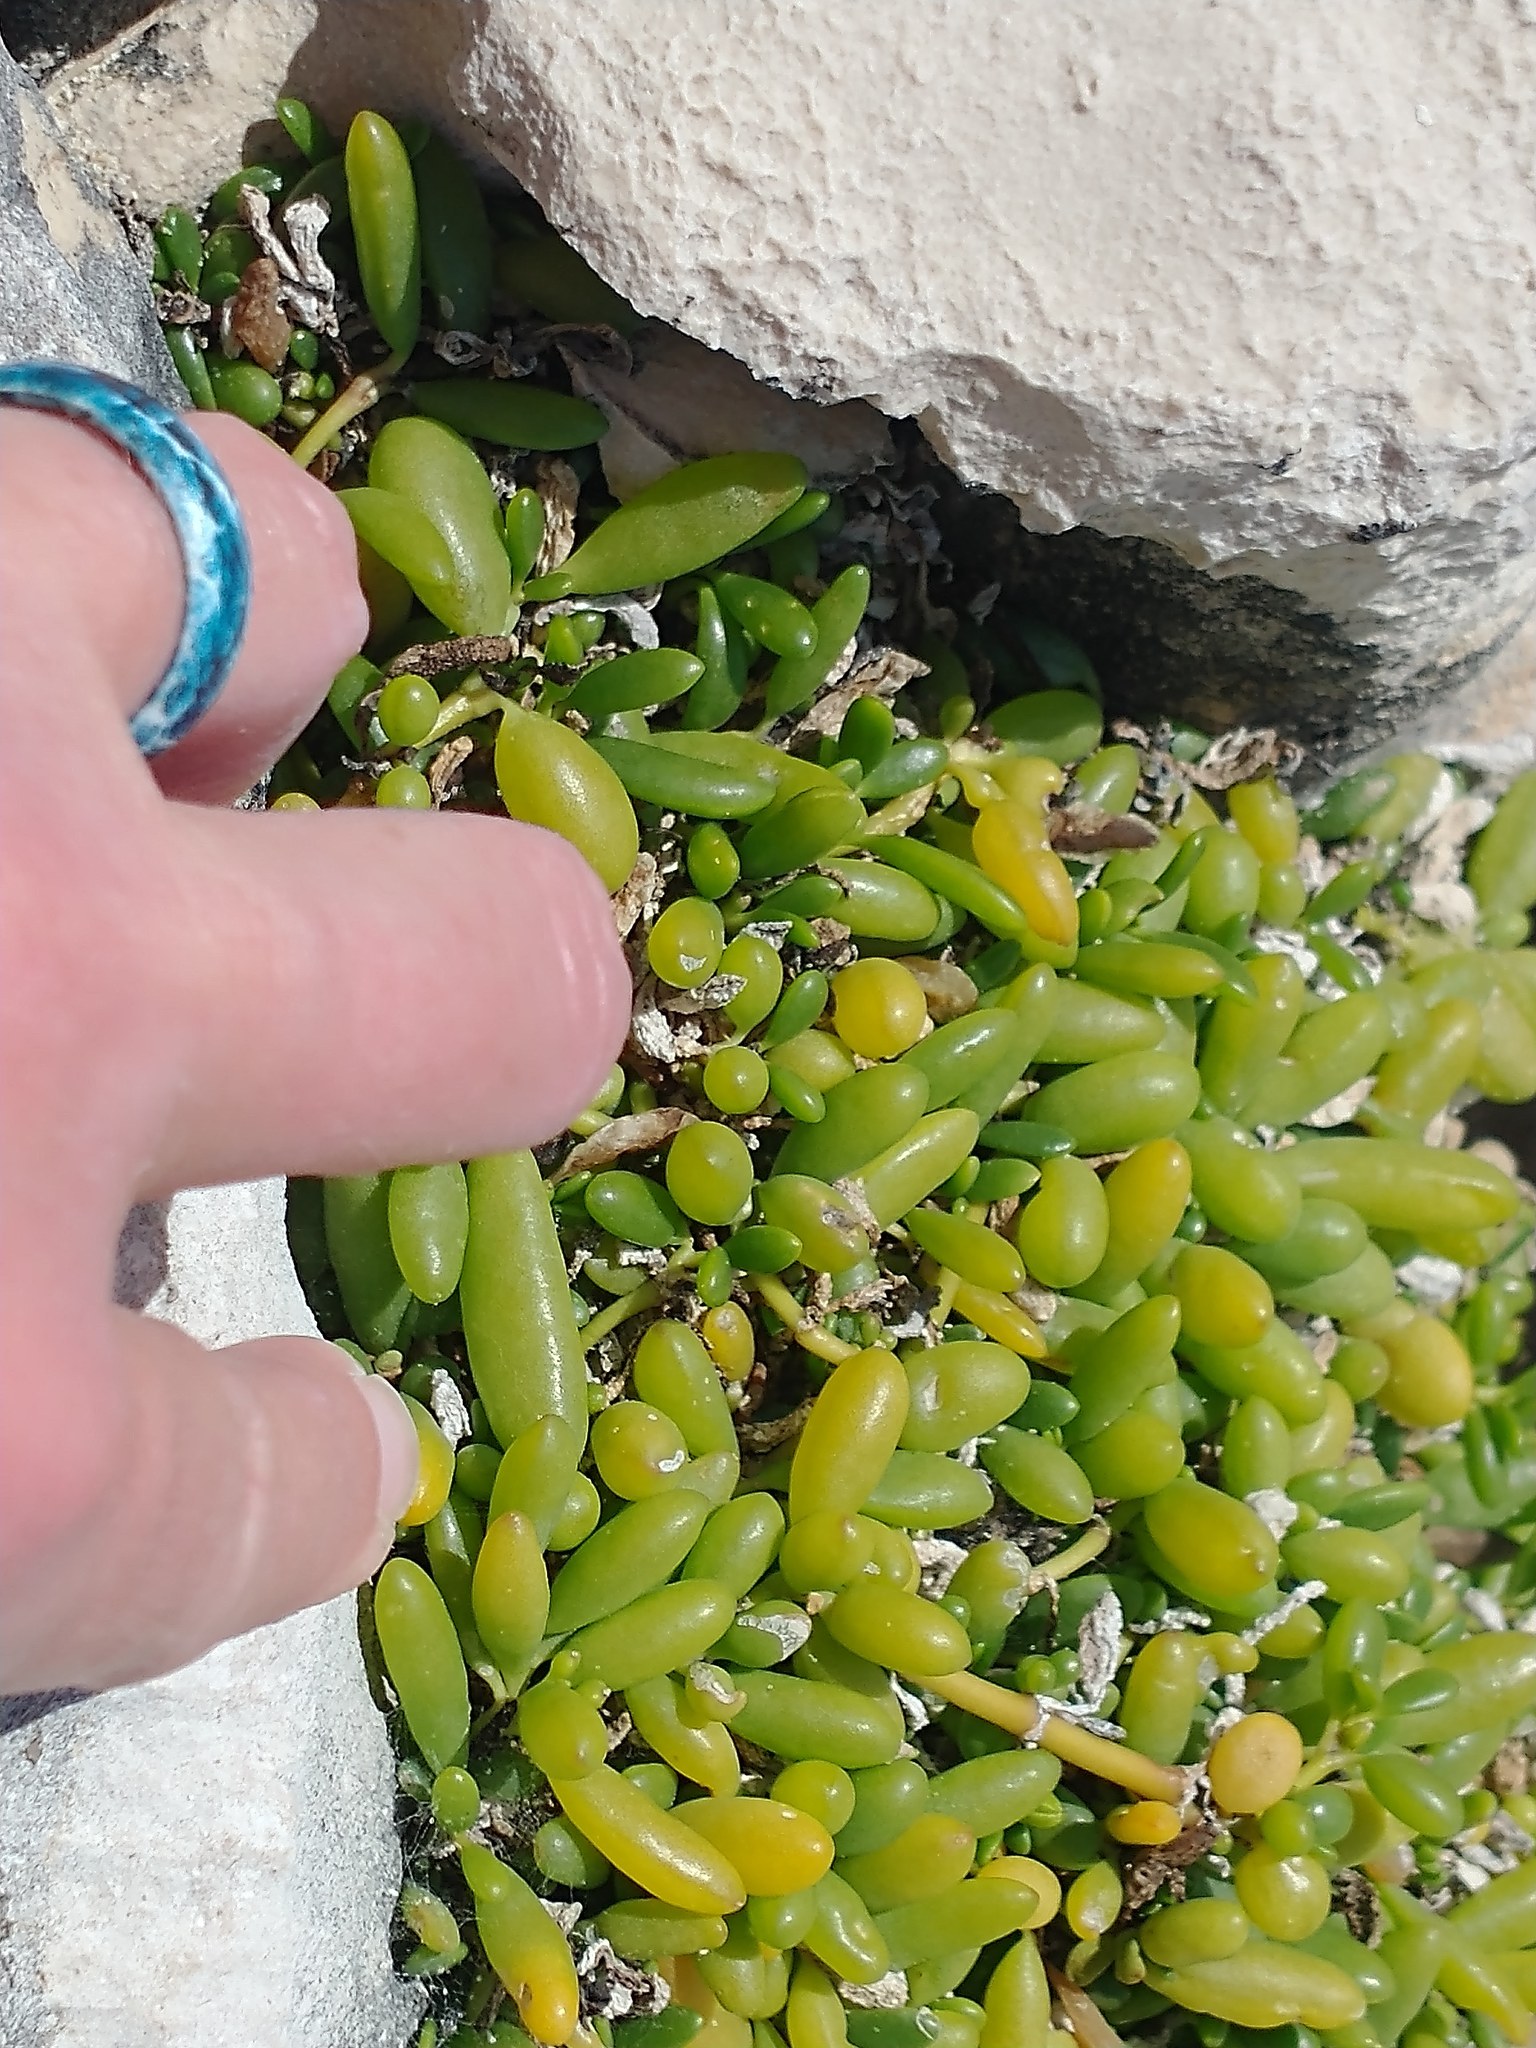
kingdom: Plantae
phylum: Tracheophyta
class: Magnoliopsida
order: Caryophyllales
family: Aizoaceae
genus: Sesuvium
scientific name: Sesuvium portulacastrum
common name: Sea-purslane
